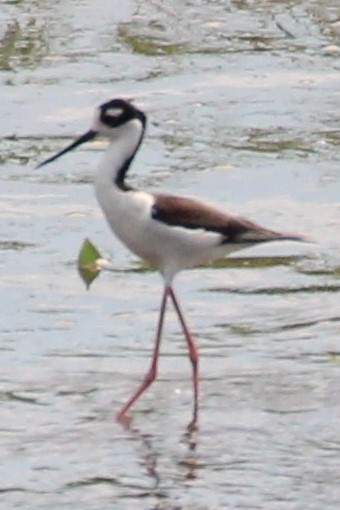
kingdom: Animalia
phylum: Chordata
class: Aves
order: Charadriiformes
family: Recurvirostridae
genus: Himantopus
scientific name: Himantopus mexicanus
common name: Black-necked stilt
